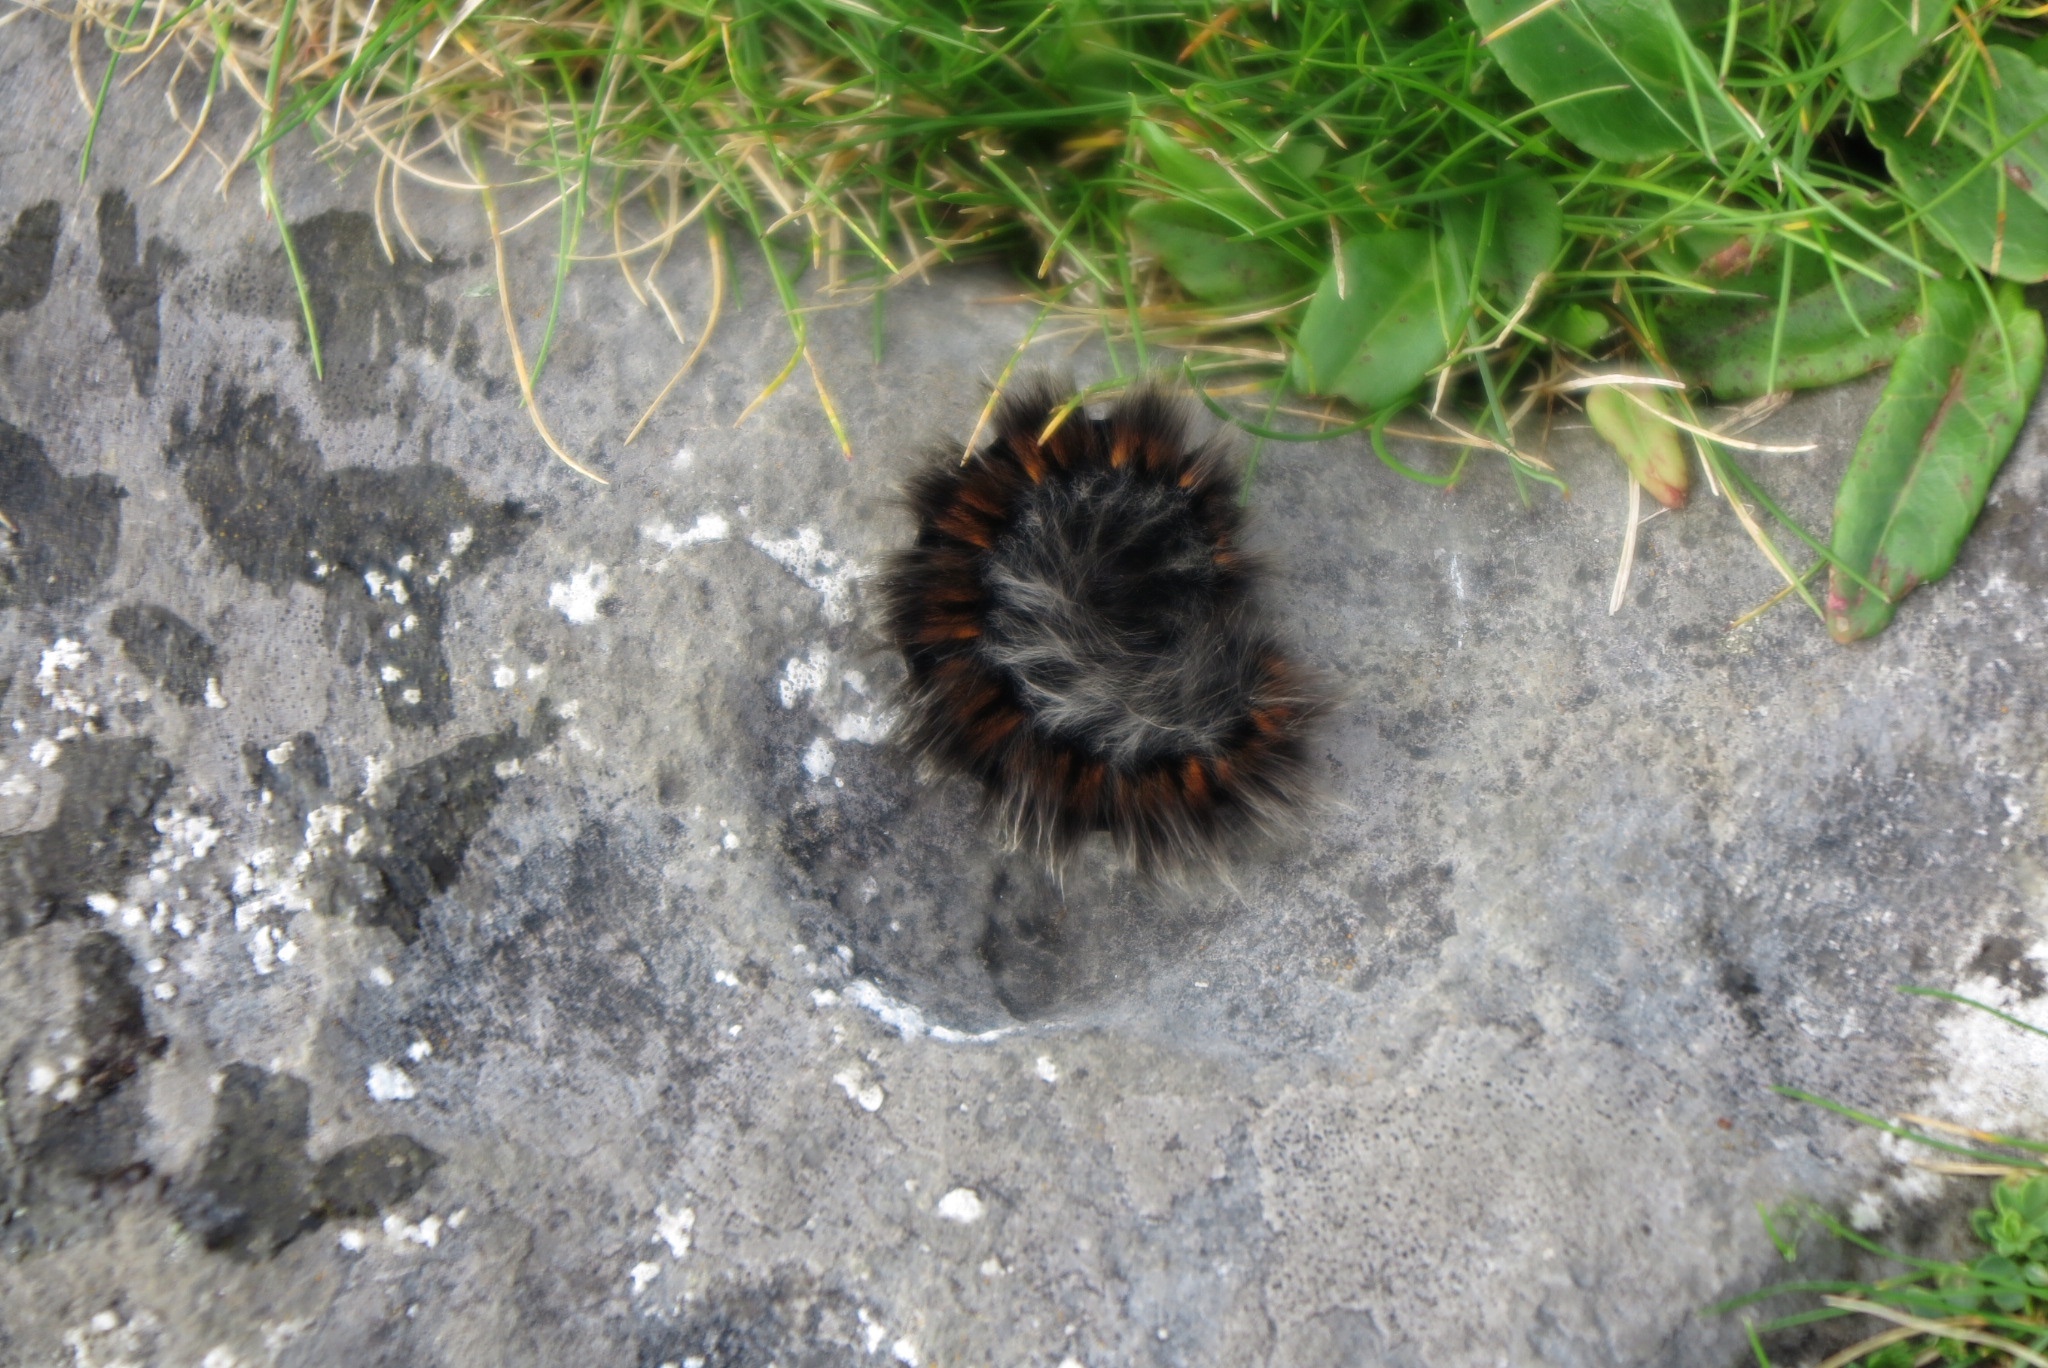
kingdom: Animalia
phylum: Arthropoda
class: Insecta
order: Lepidoptera
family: Lasiocampidae
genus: Macrothylacia
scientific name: Macrothylacia rubi
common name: Fox moth
